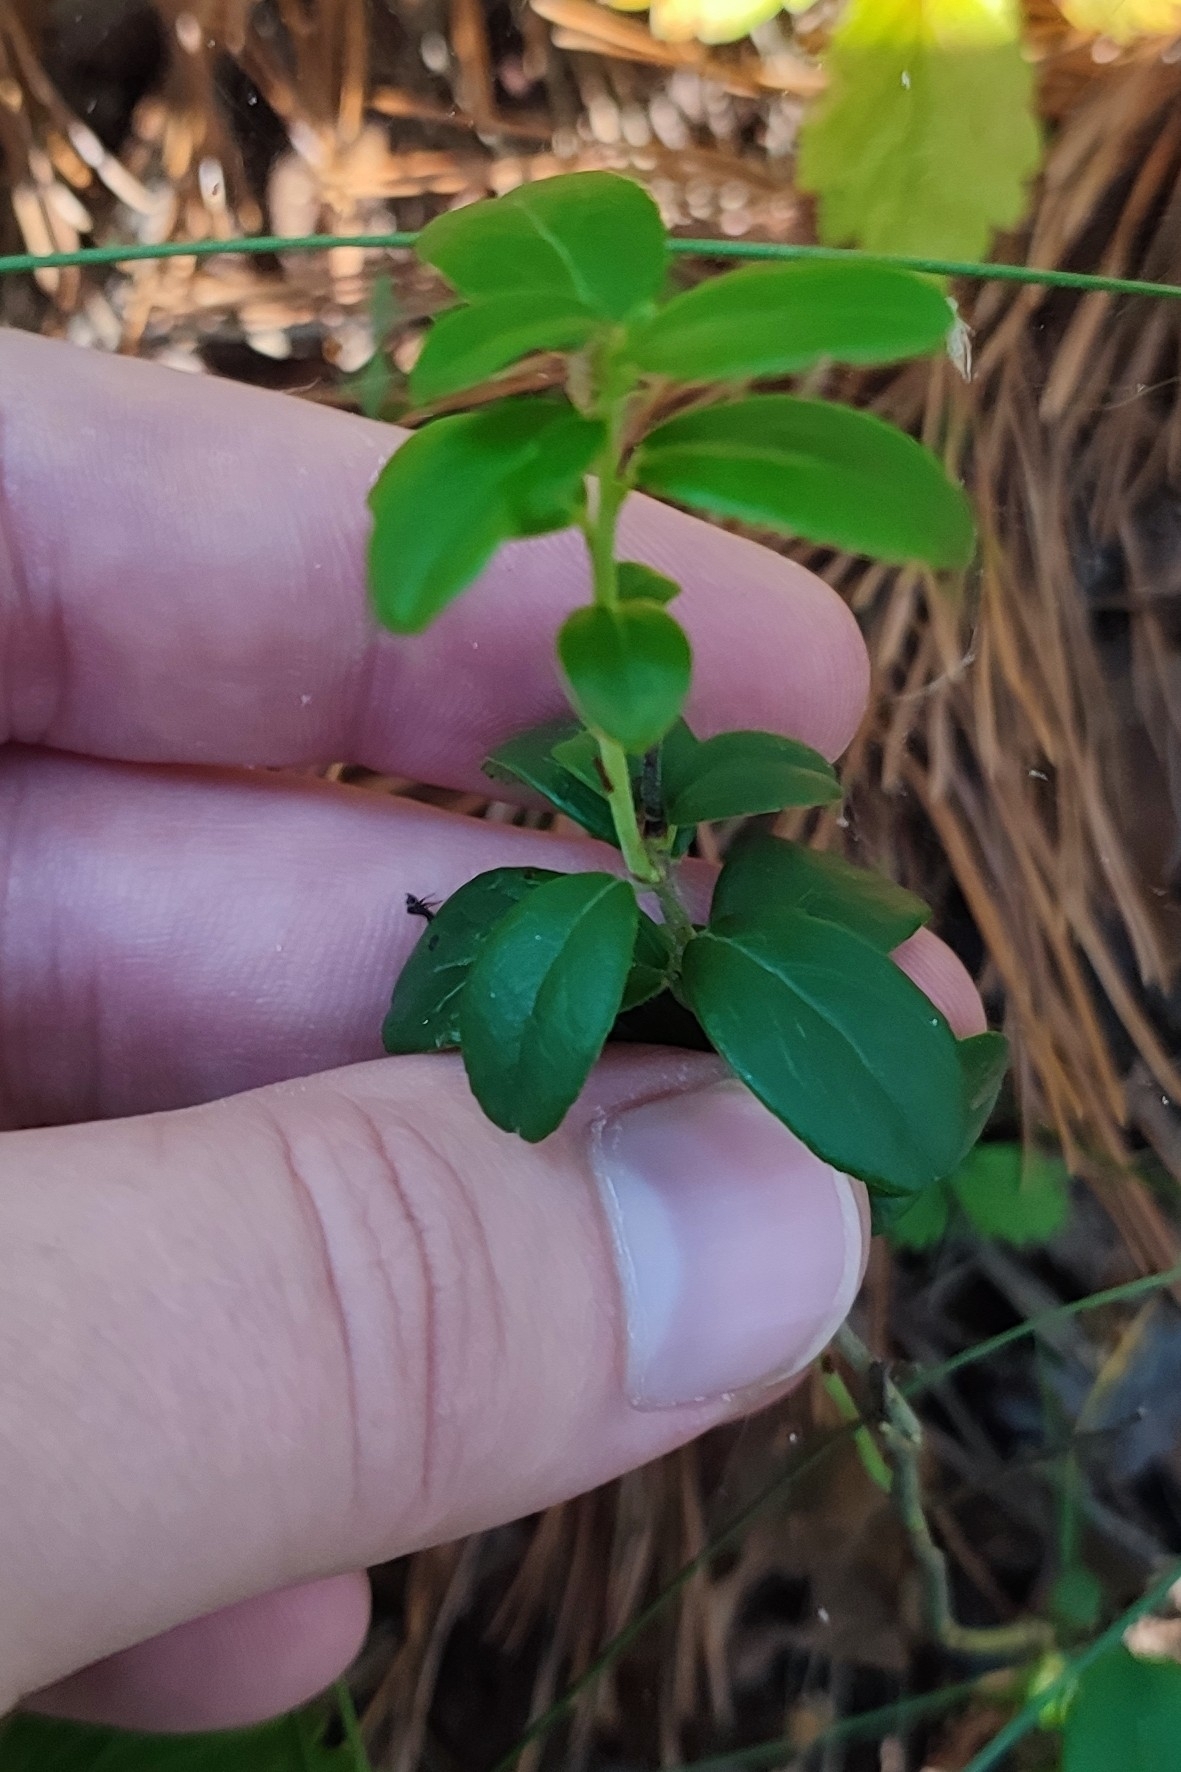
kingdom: Plantae
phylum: Tracheophyta
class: Magnoliopsida
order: Ericales
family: Ericaceae
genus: Vaccinium
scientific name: Vaccinium vitis-idaea
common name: Cowberry
